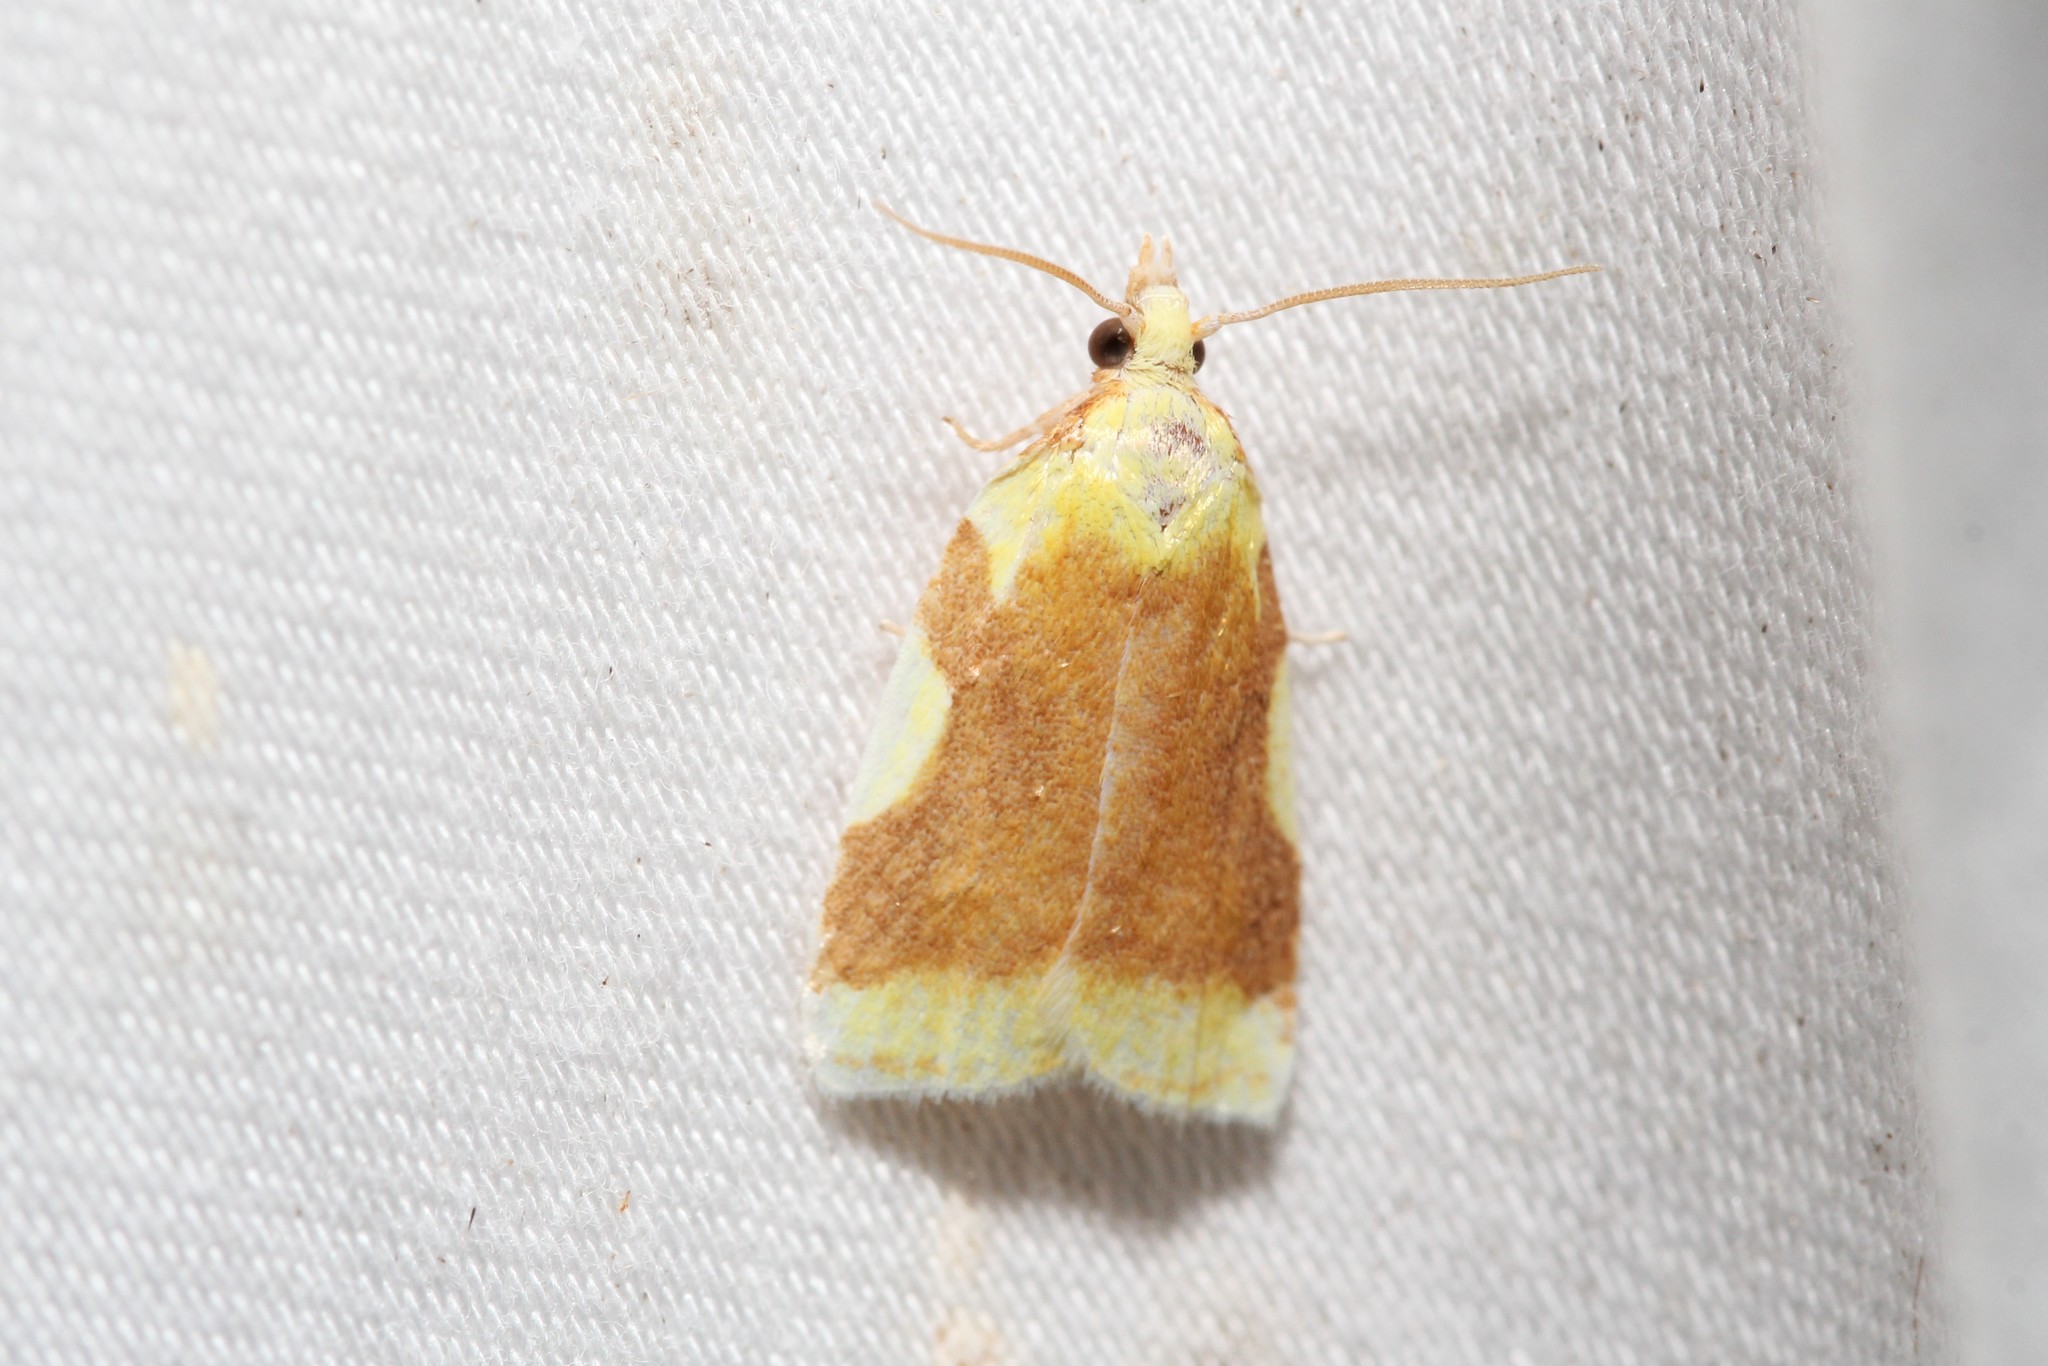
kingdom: Animalia
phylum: Arthropoda
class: Insecta
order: Lepidoptera
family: Tortricidae
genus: Cenopis
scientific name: Cenopis niveana
